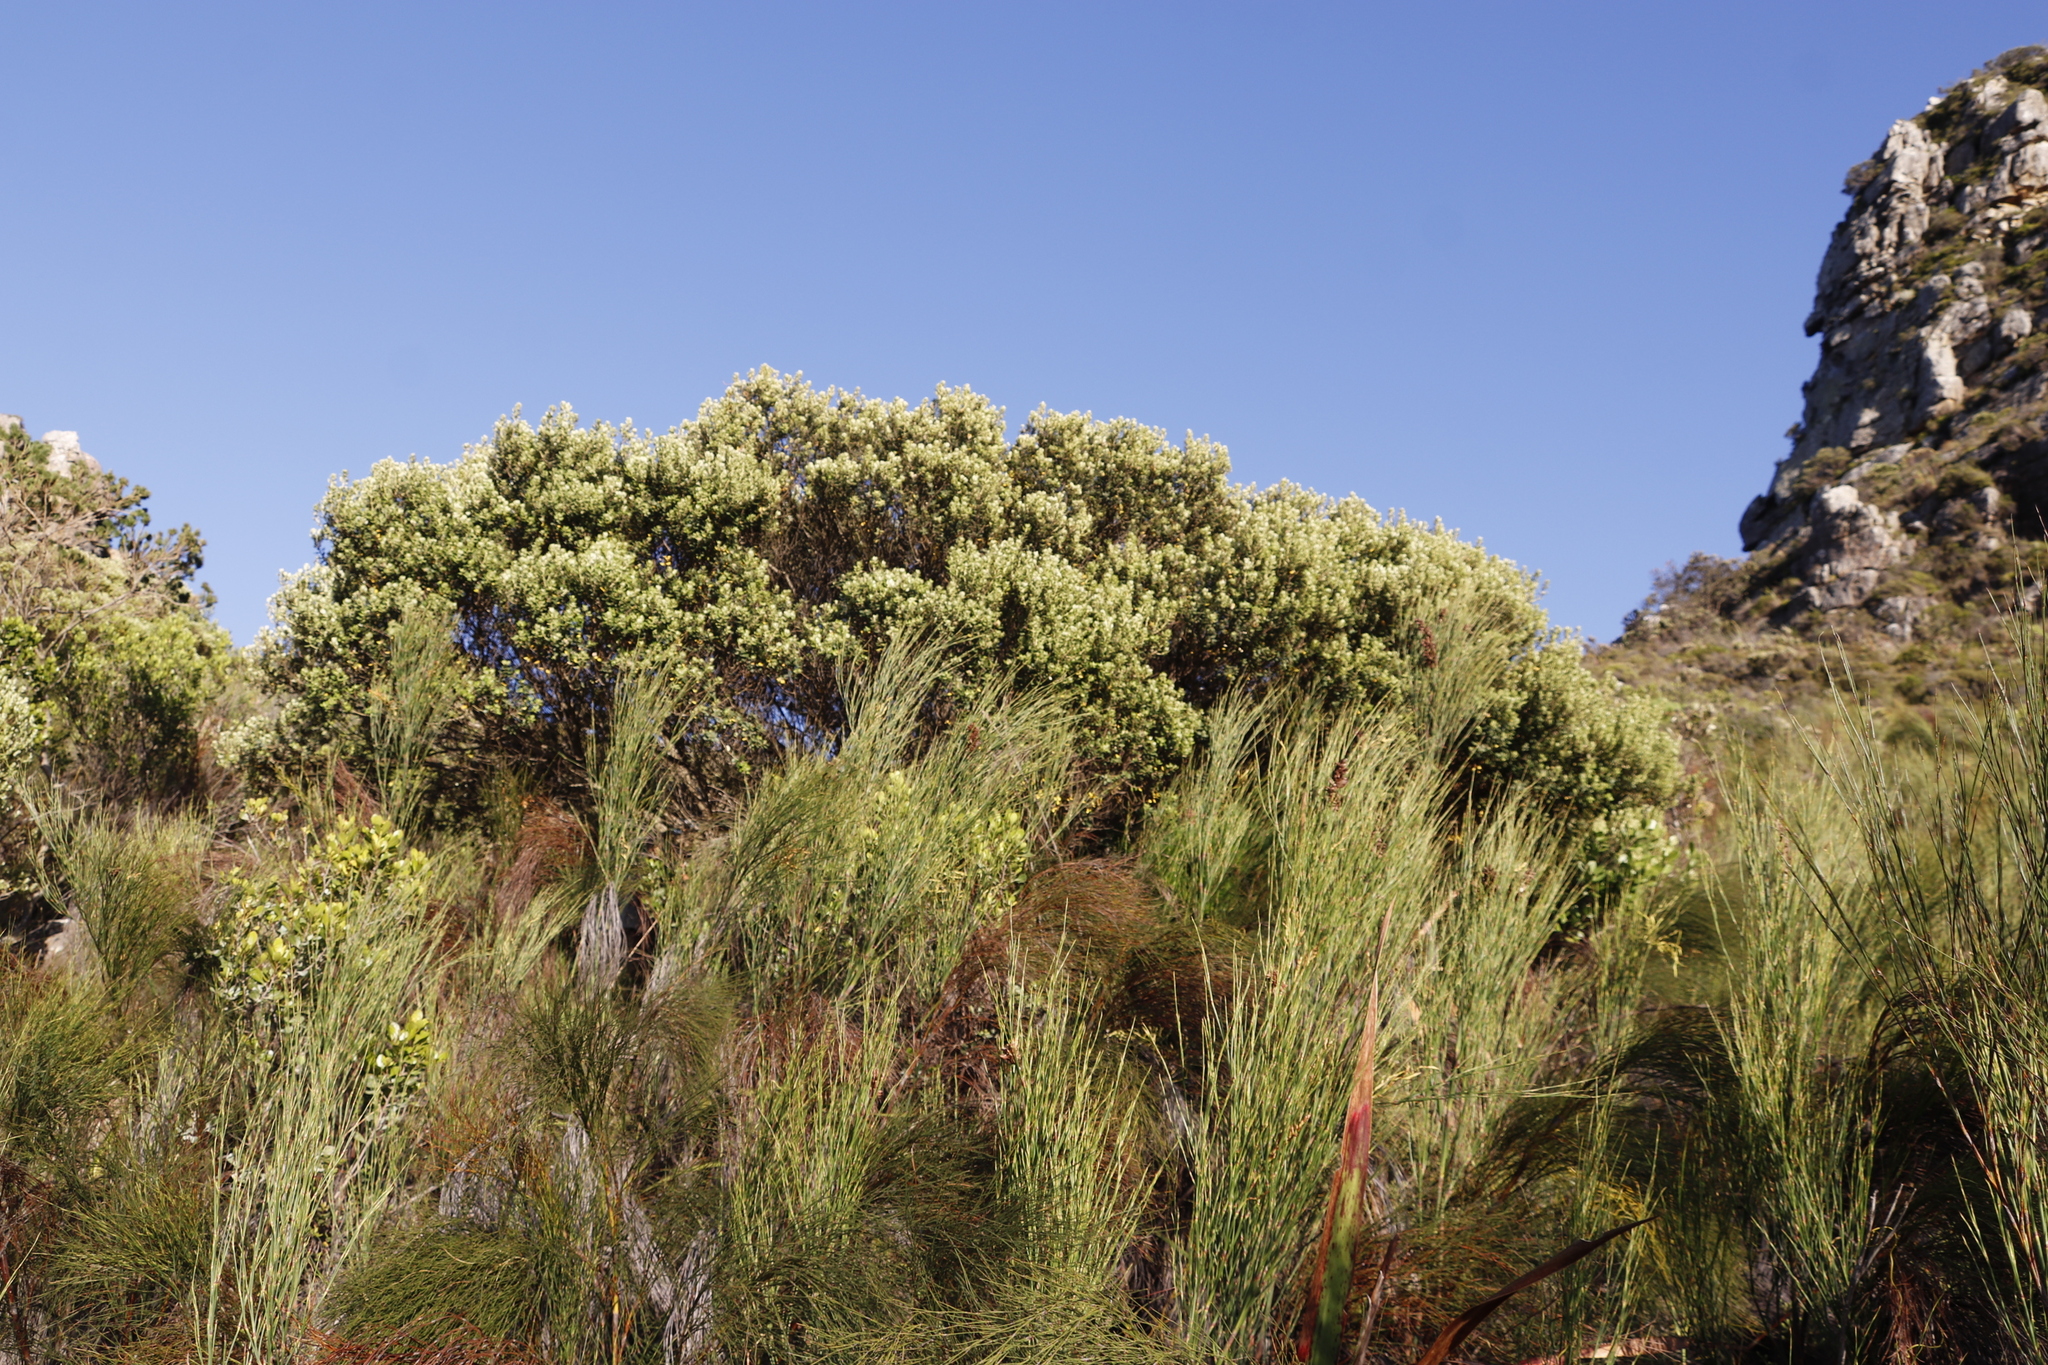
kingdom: Plantae
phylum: Tracheophyta
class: Magnoliopsida
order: Rosales
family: Rhamnaceae
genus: Phylica
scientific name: Phylica buxifolia
